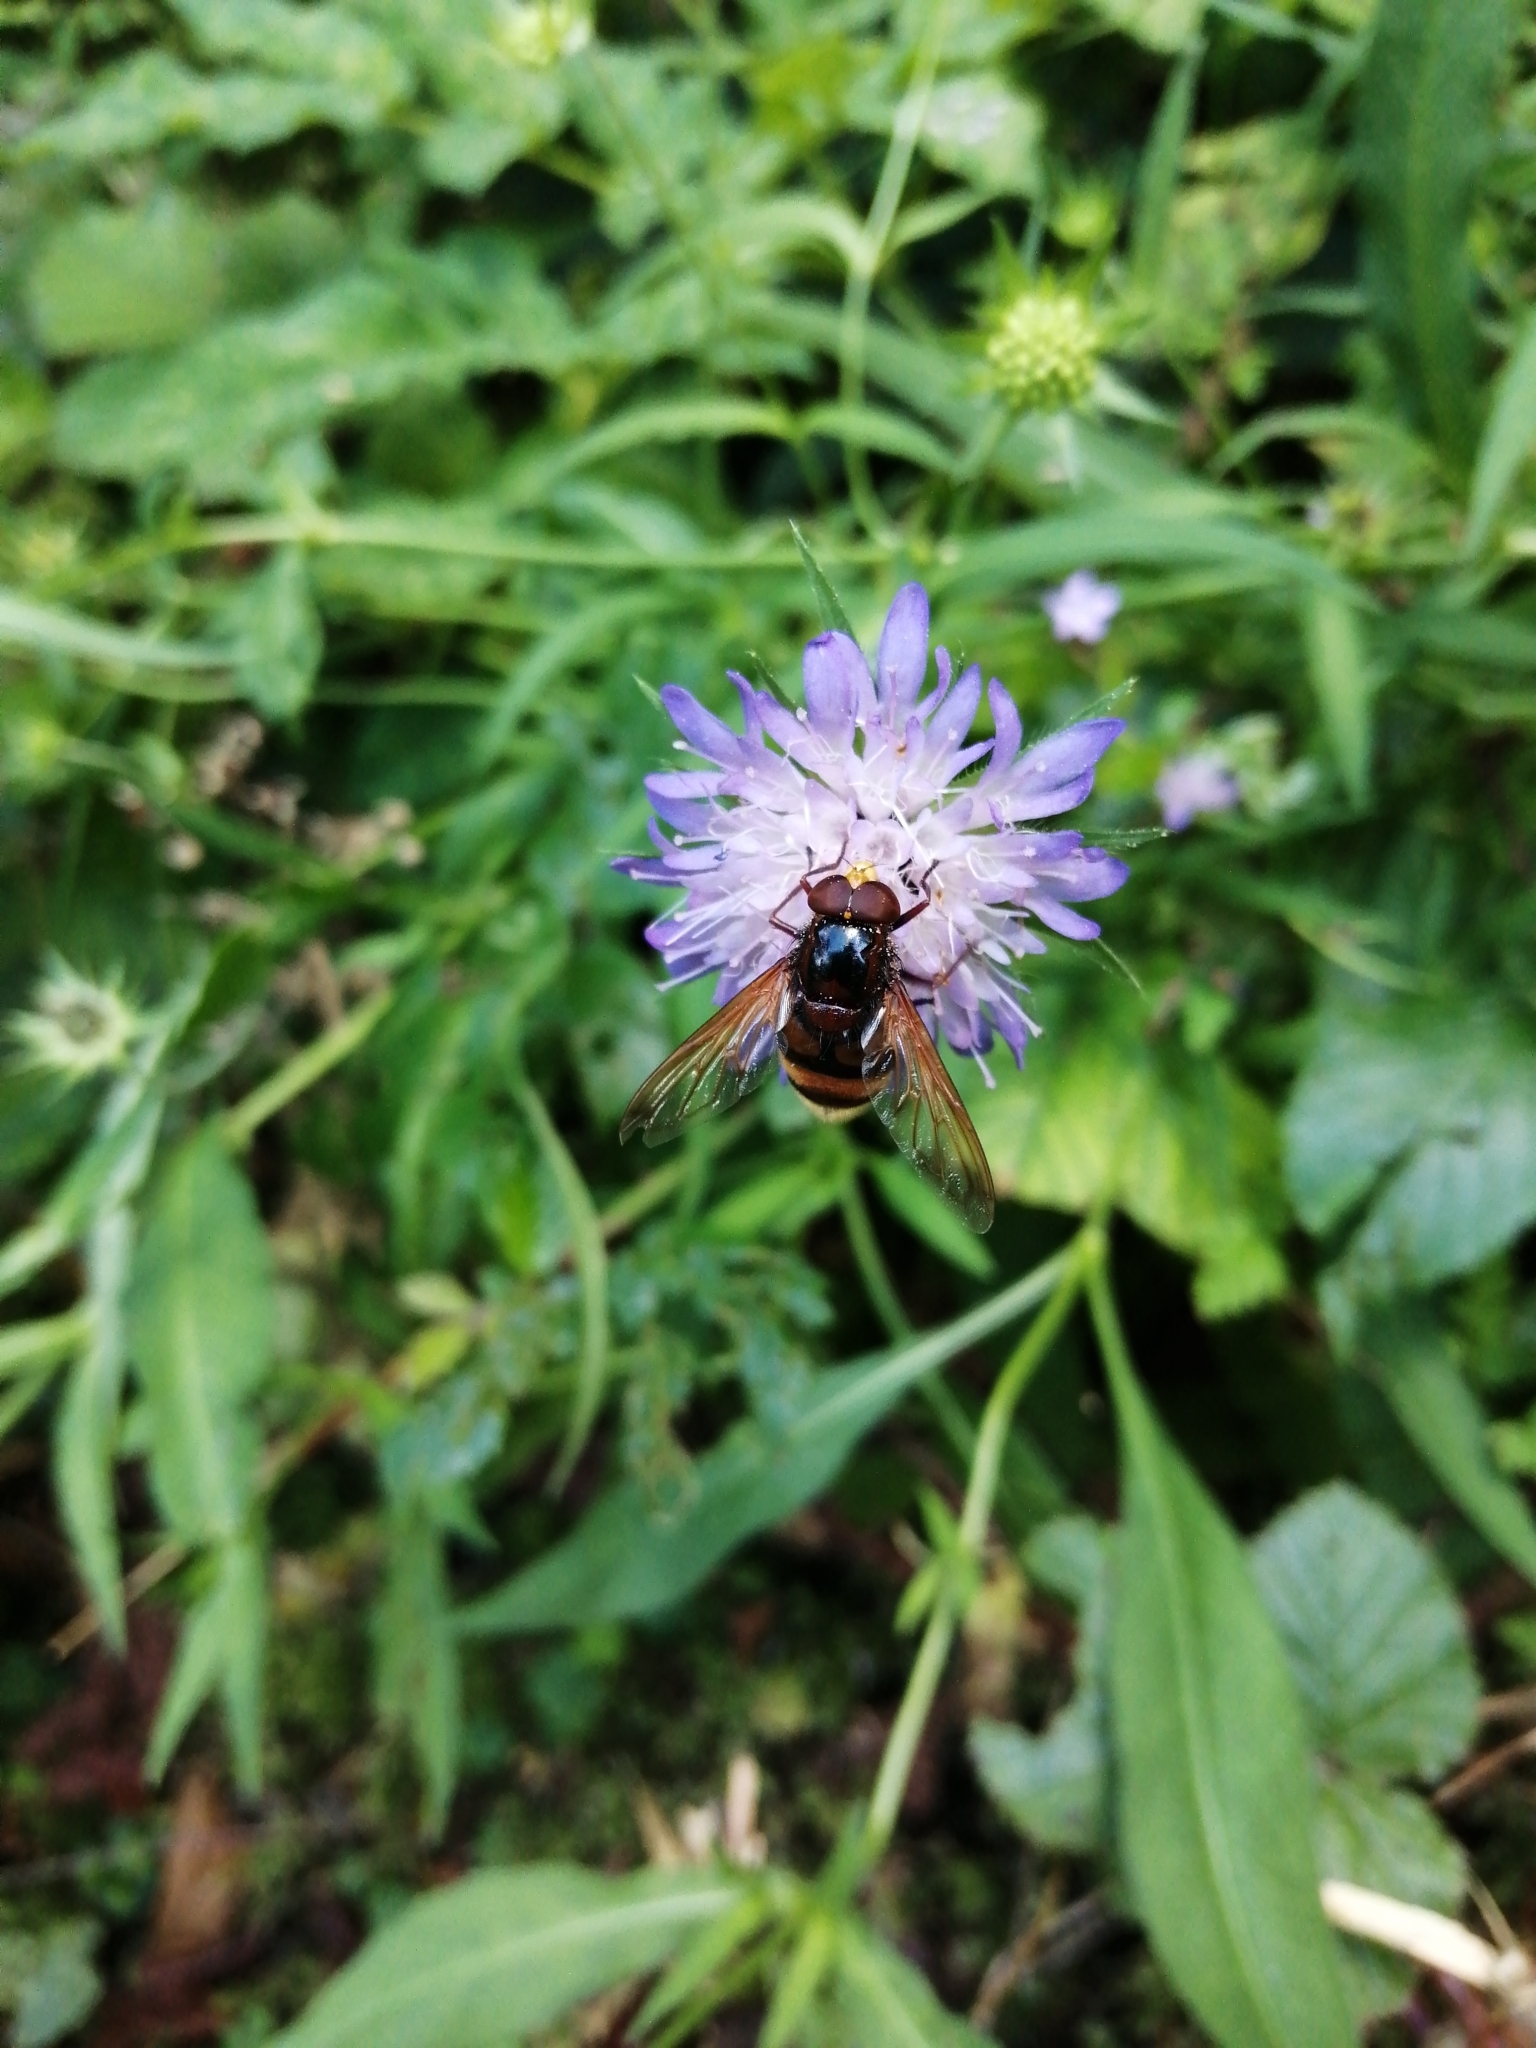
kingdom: Animalia
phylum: Arthropoda
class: Insecta
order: Diptera
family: Syrphidae
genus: Volucella
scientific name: Volucella zonaria
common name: Hornet hoverfly
